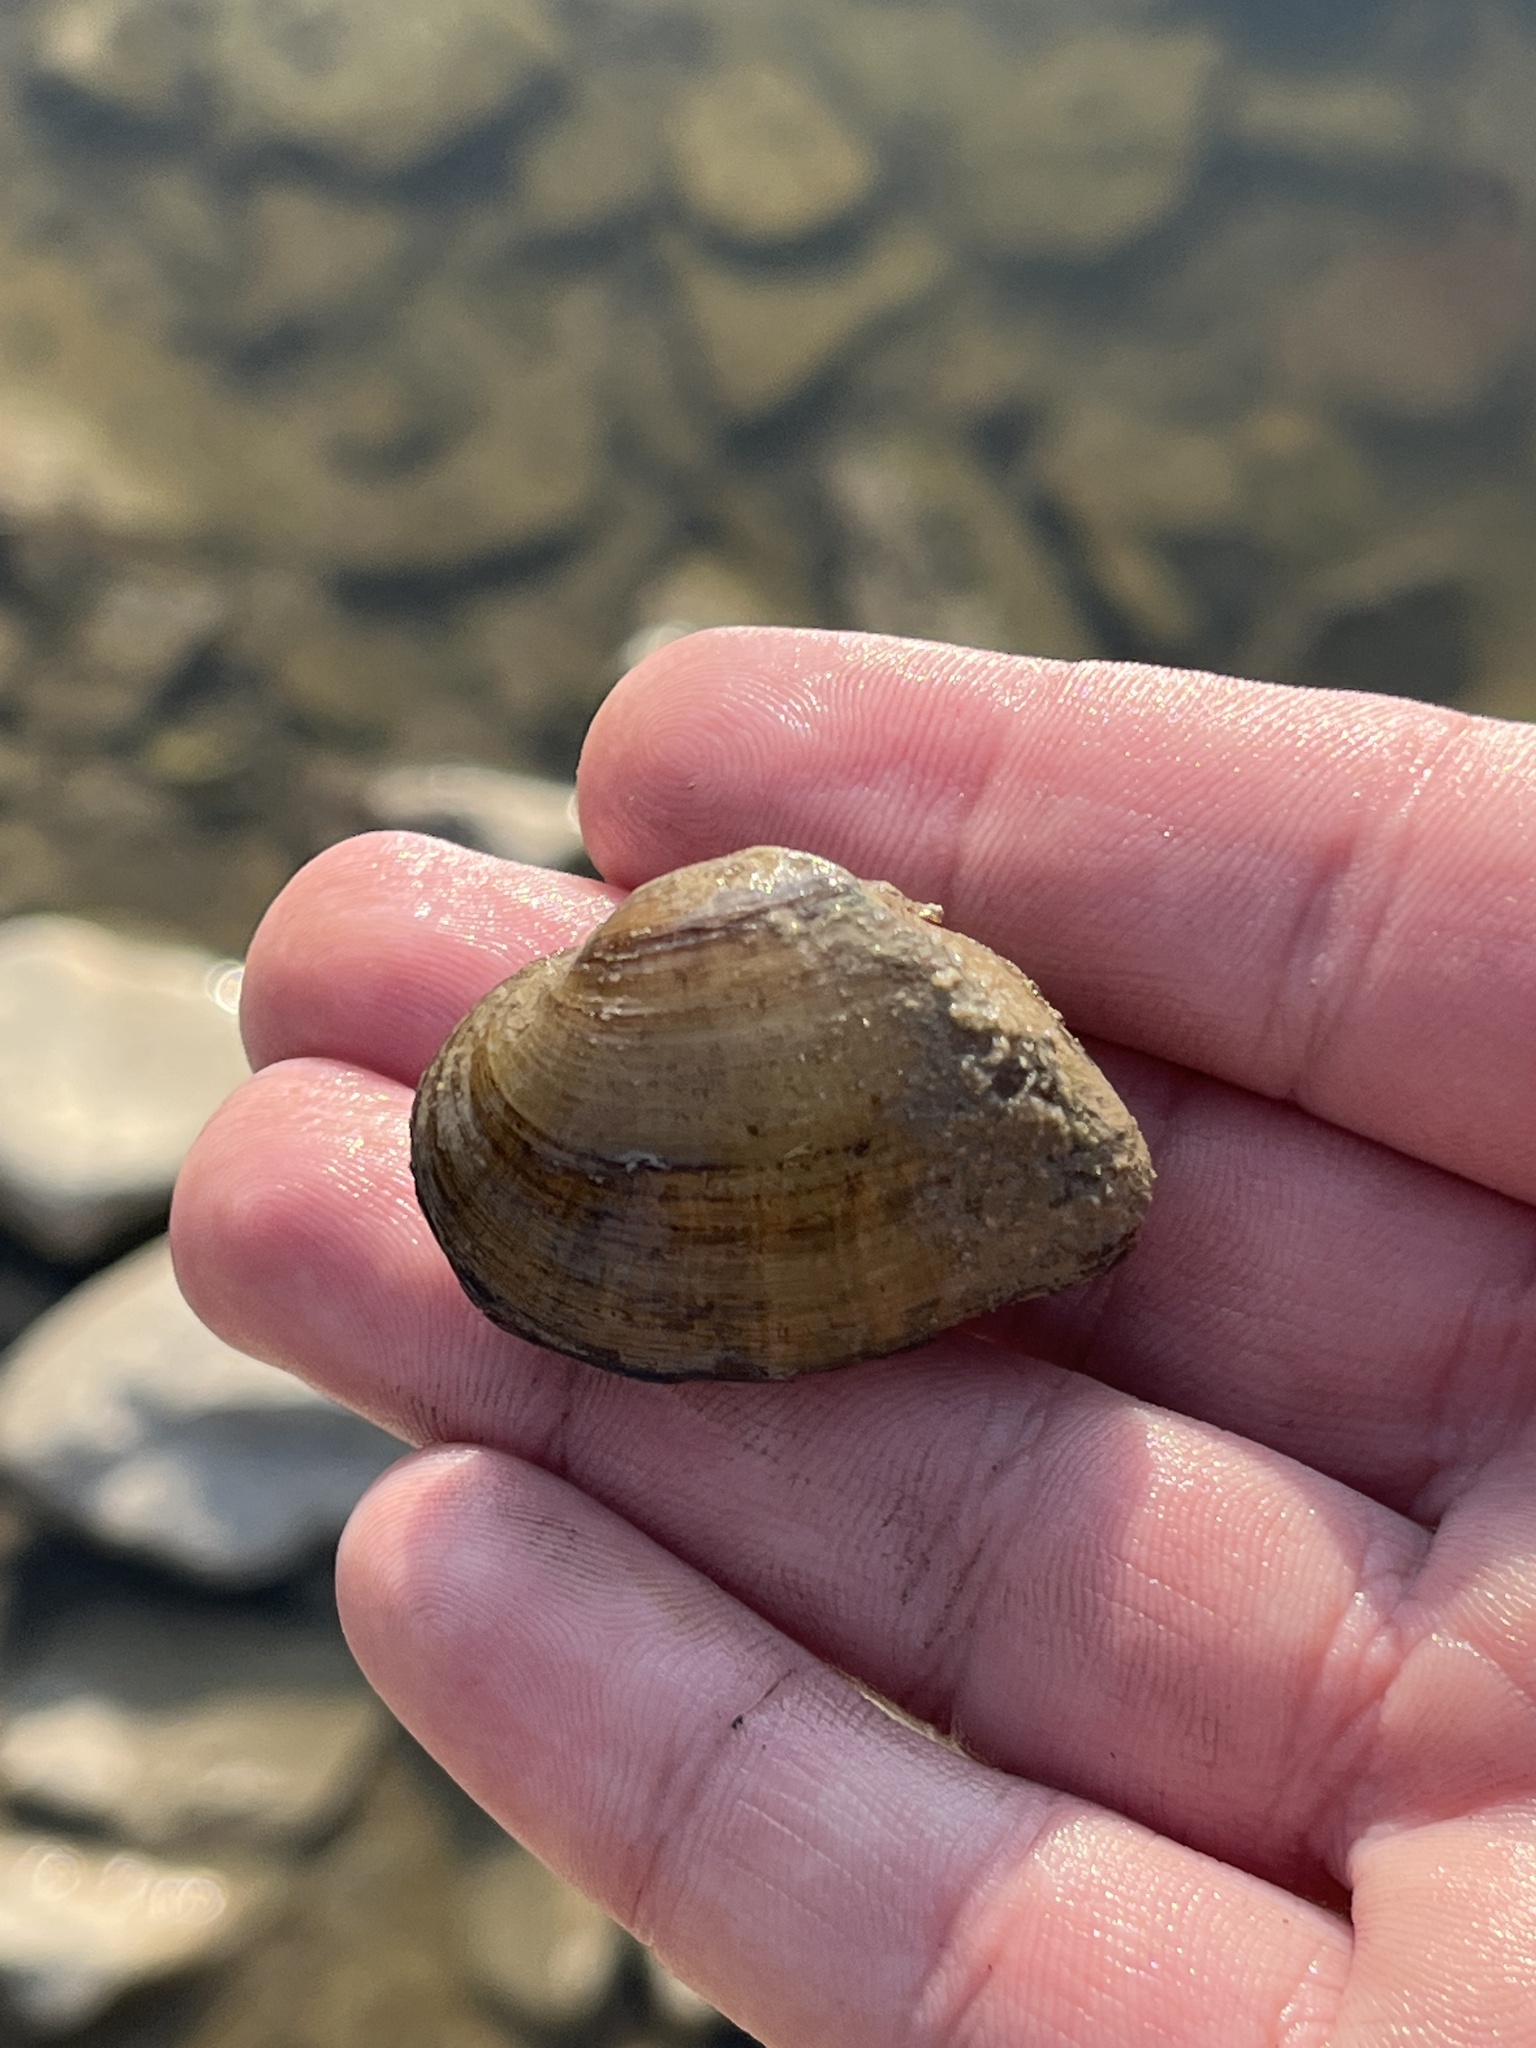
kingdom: Animalia
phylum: Mollusca
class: Bivalvia
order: Unionida
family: Unionidae
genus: Truncilla
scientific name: Truncilla truncata
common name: Deertoe
